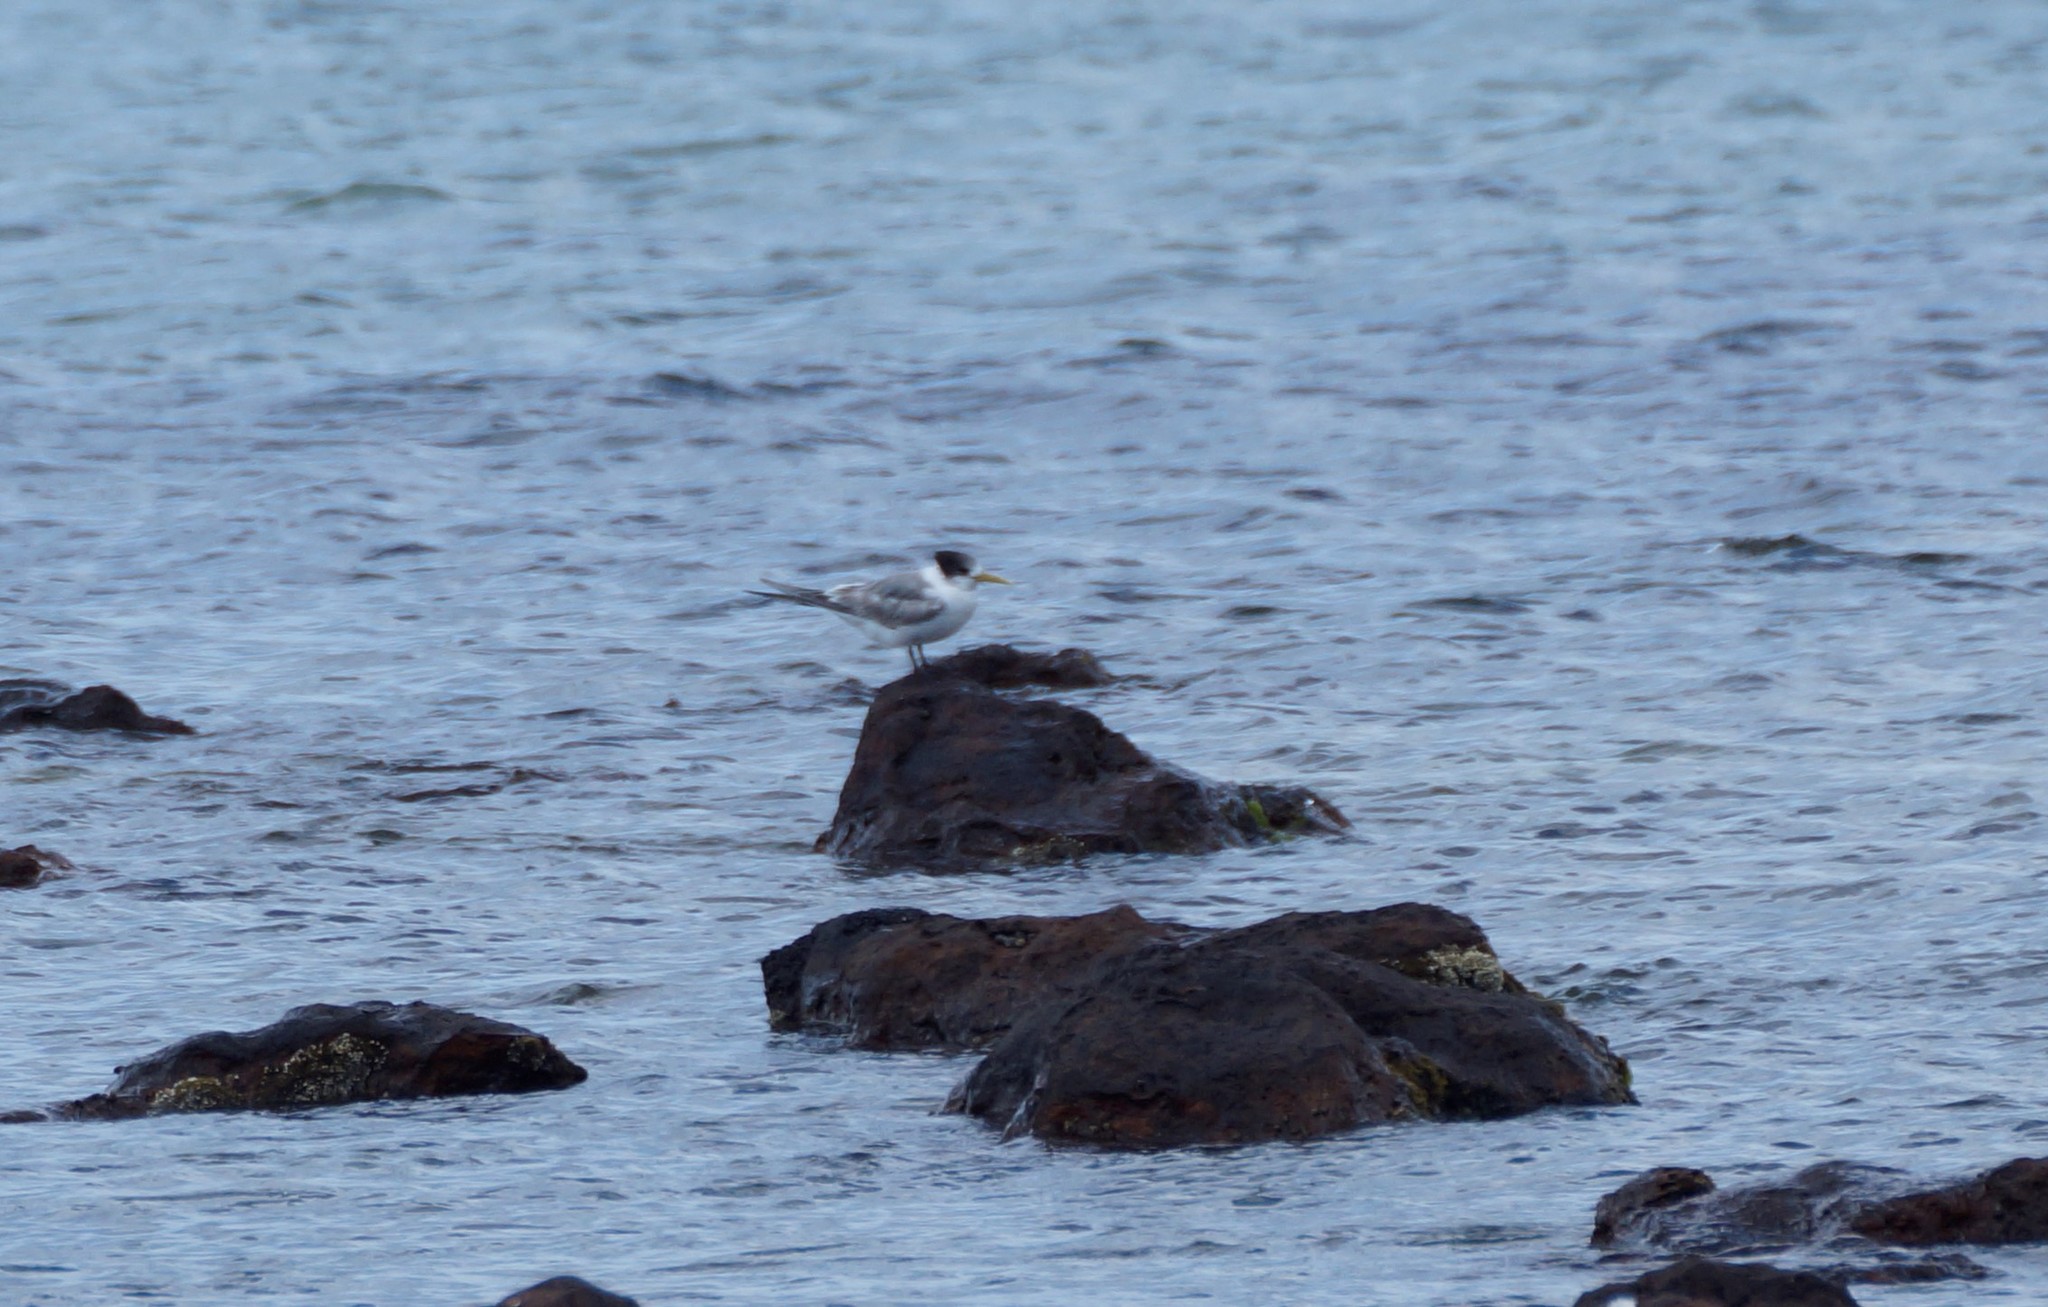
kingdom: Animalia
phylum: Chordata
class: Aves
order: Charadriiformes
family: Laridae
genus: Thalasseus
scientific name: Thalasseus bergii
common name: Greater crested tern
